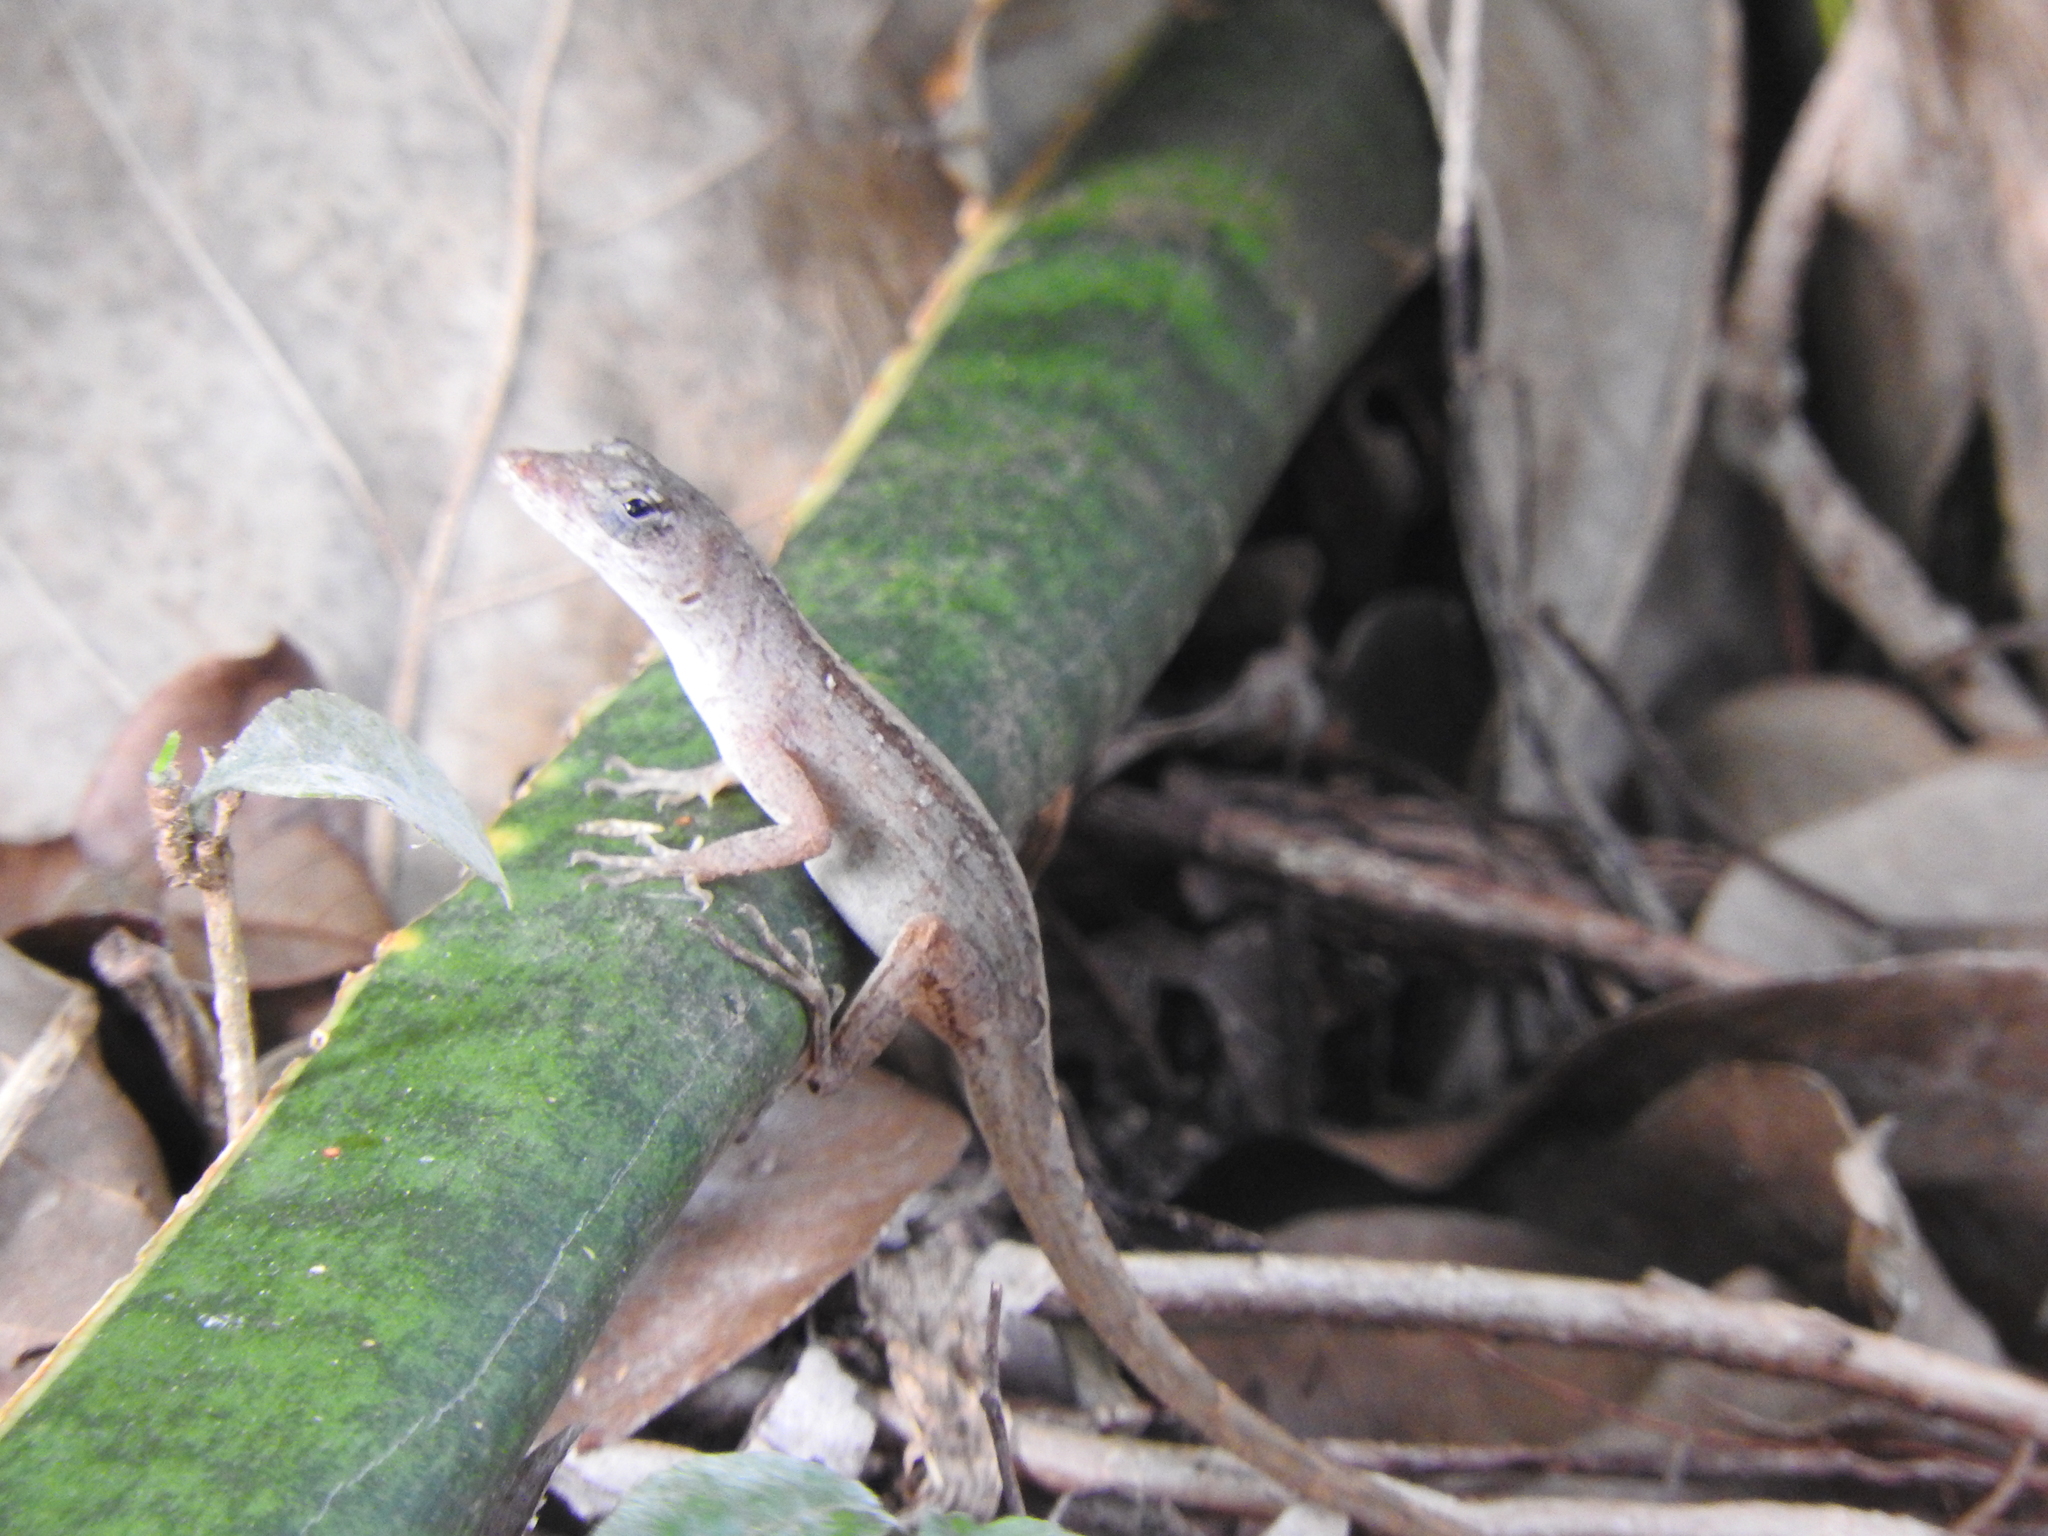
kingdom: Animalia
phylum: Chordata
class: Squamata
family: Dactyloidae
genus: Anolis
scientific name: Anolis sagrei
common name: Brown anole
